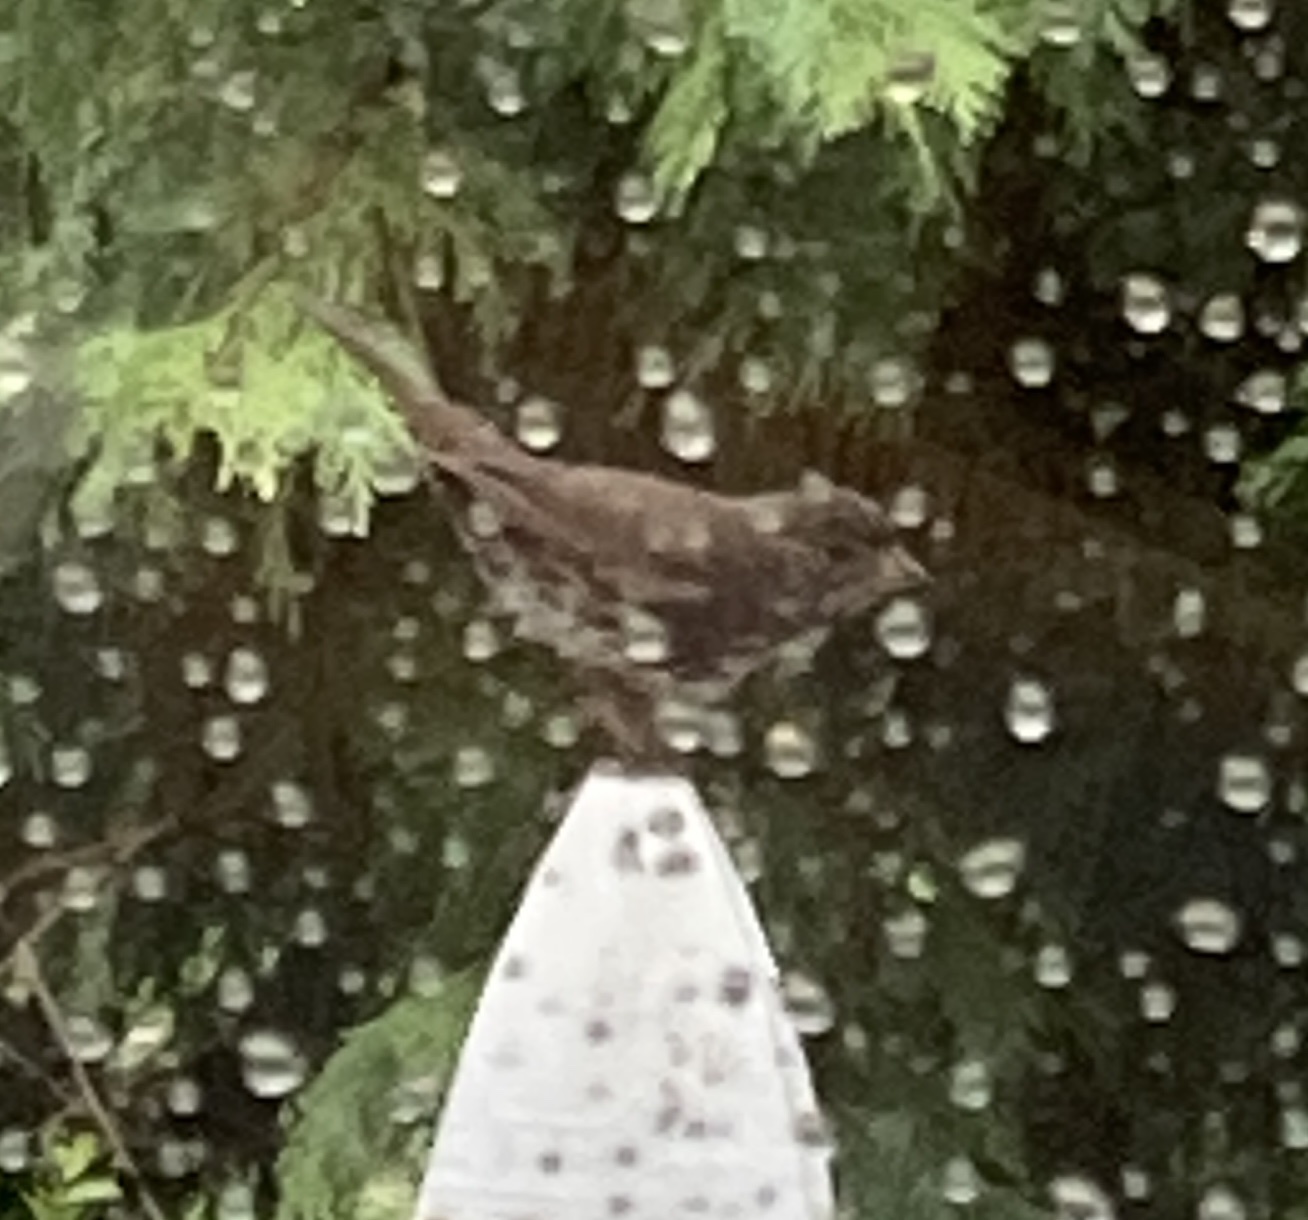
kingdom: Animalia
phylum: Chordata
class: Aves
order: Passeriformes
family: Passerellidae
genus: Passerella
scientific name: Passerella iliaca
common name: Fox sparrow
